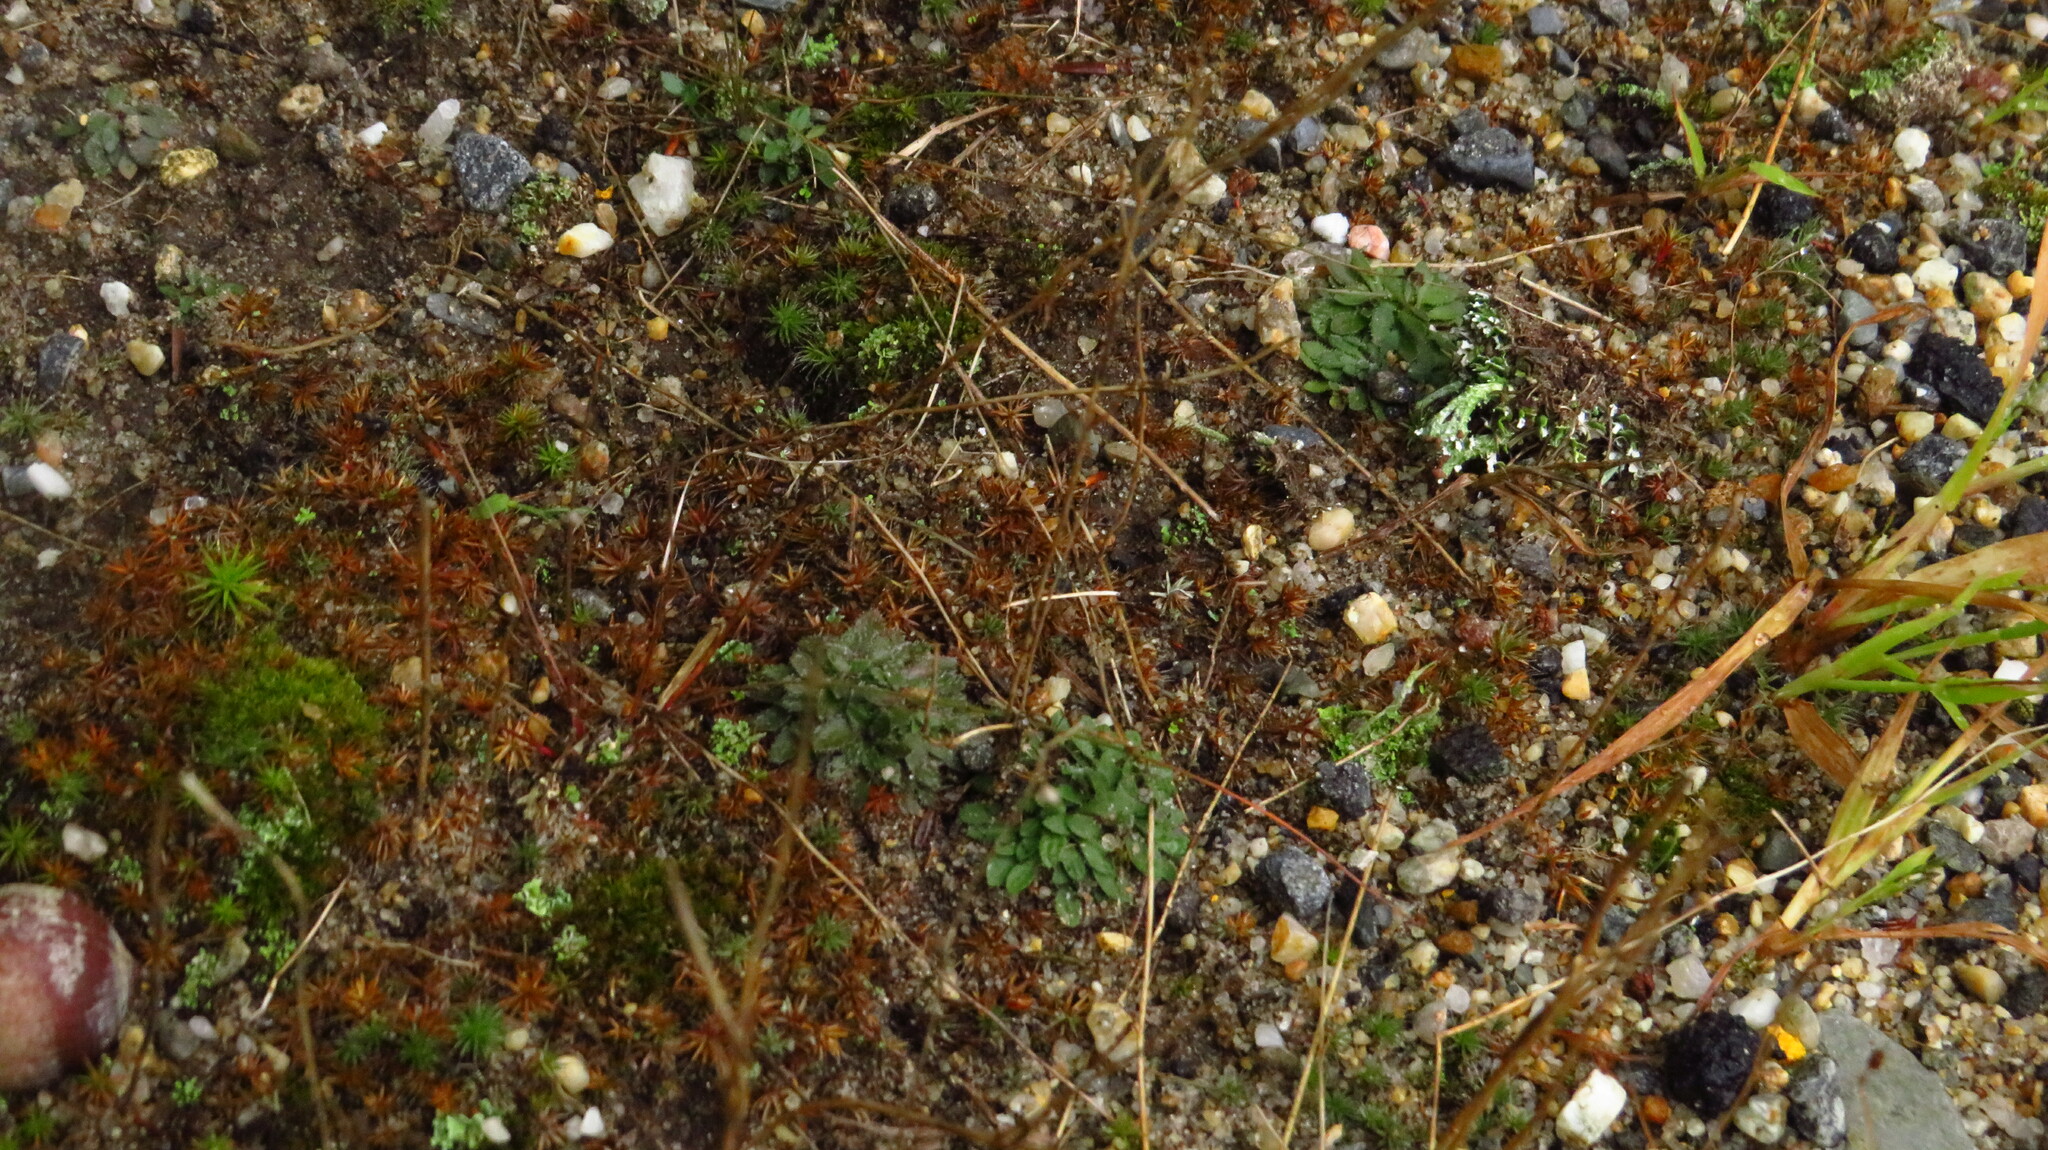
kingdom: Plantae
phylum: Tracheophyta
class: Magnoliopsida
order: Gentianales
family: Rubiaceae
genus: Houstonia
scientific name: Houstonia caerulea
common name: Bluets
